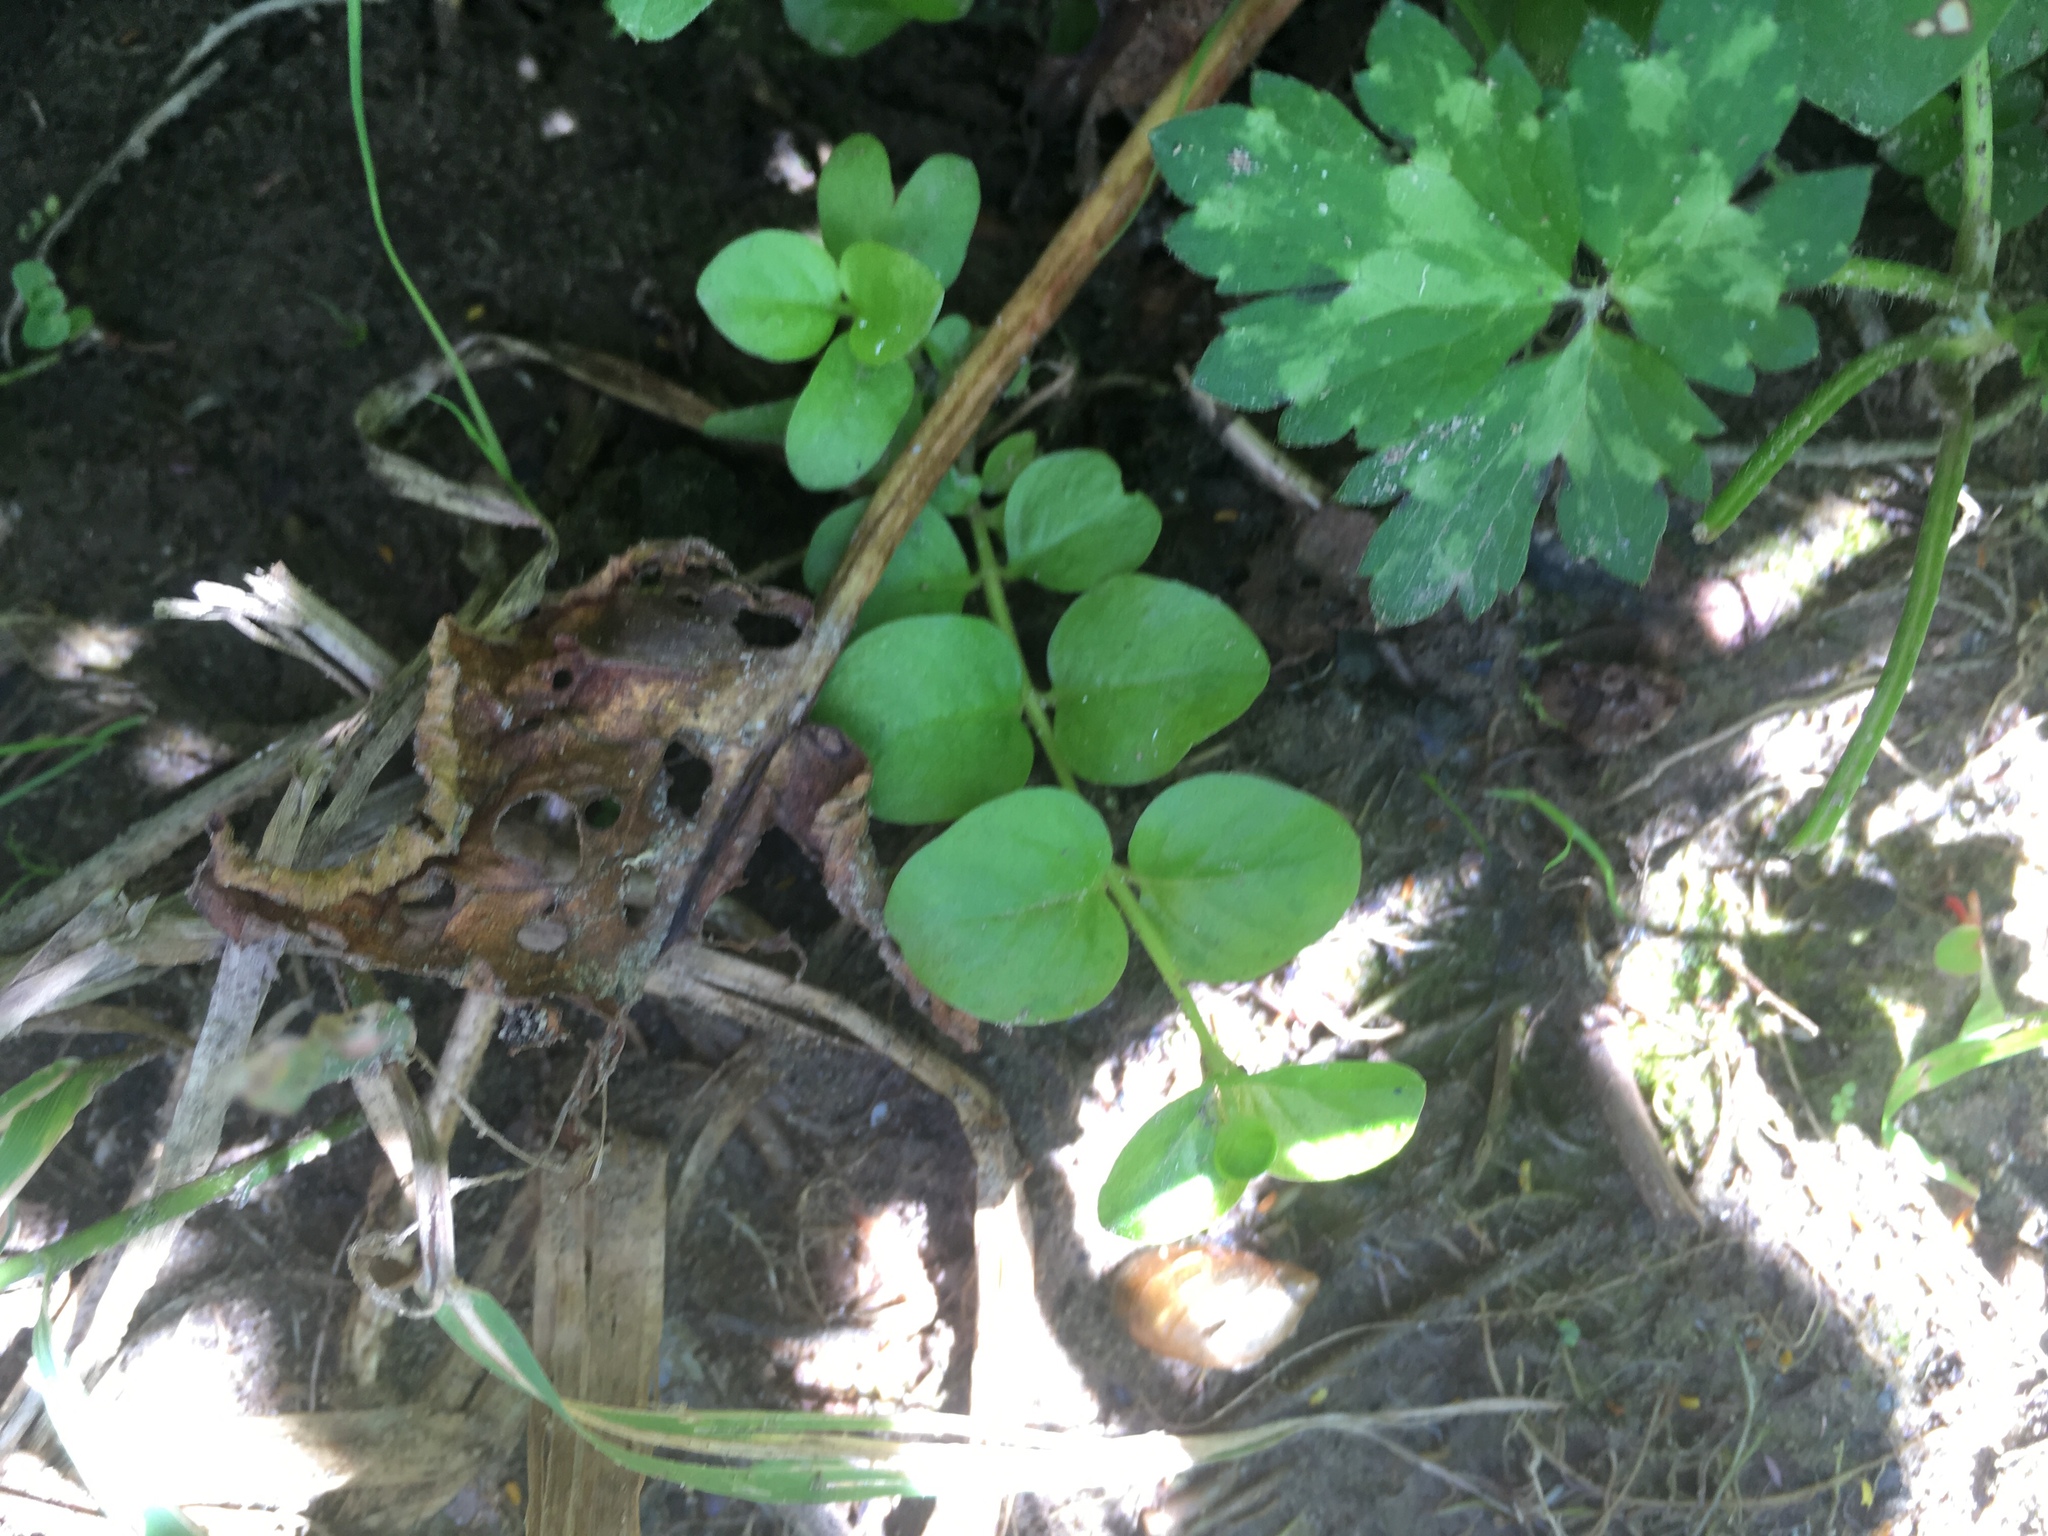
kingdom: Plantae
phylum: Tracheophyta
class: Magnoliopsida
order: Ericales
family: Primulaceae
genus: Lysimachia
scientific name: Lysimachia nummularia
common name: Moneywort
